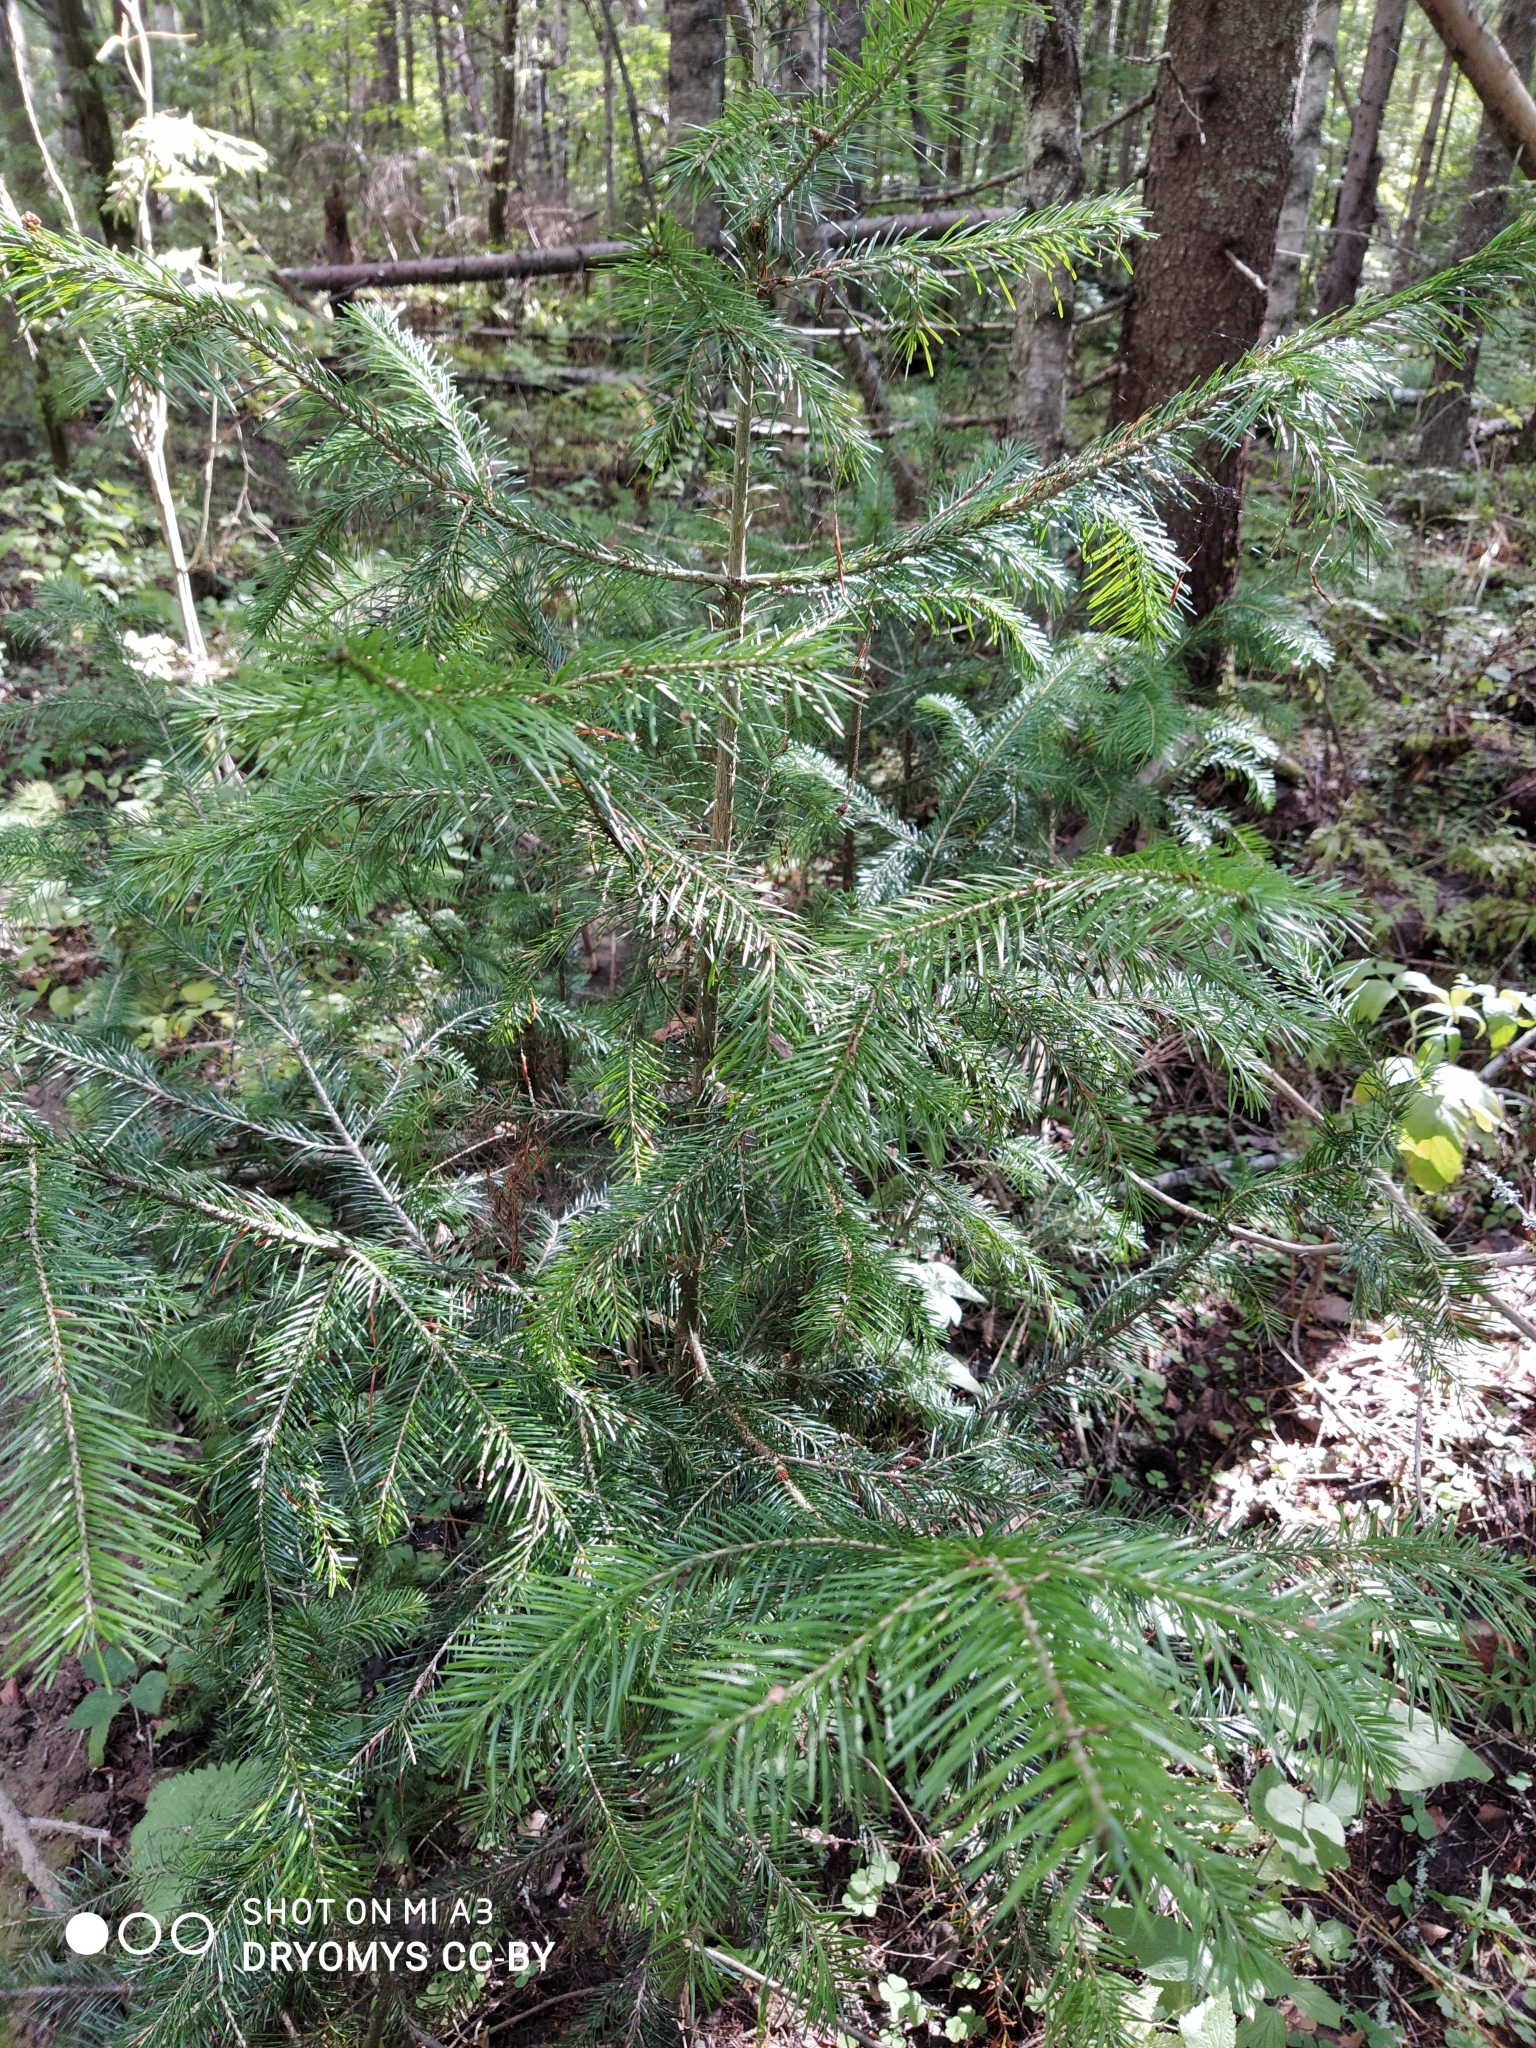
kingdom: Plantae
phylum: Tracheophyta
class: Pinopsida
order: Pinales
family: Pinaceae
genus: Abies
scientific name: Abies sibirica
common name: Siberian fir
